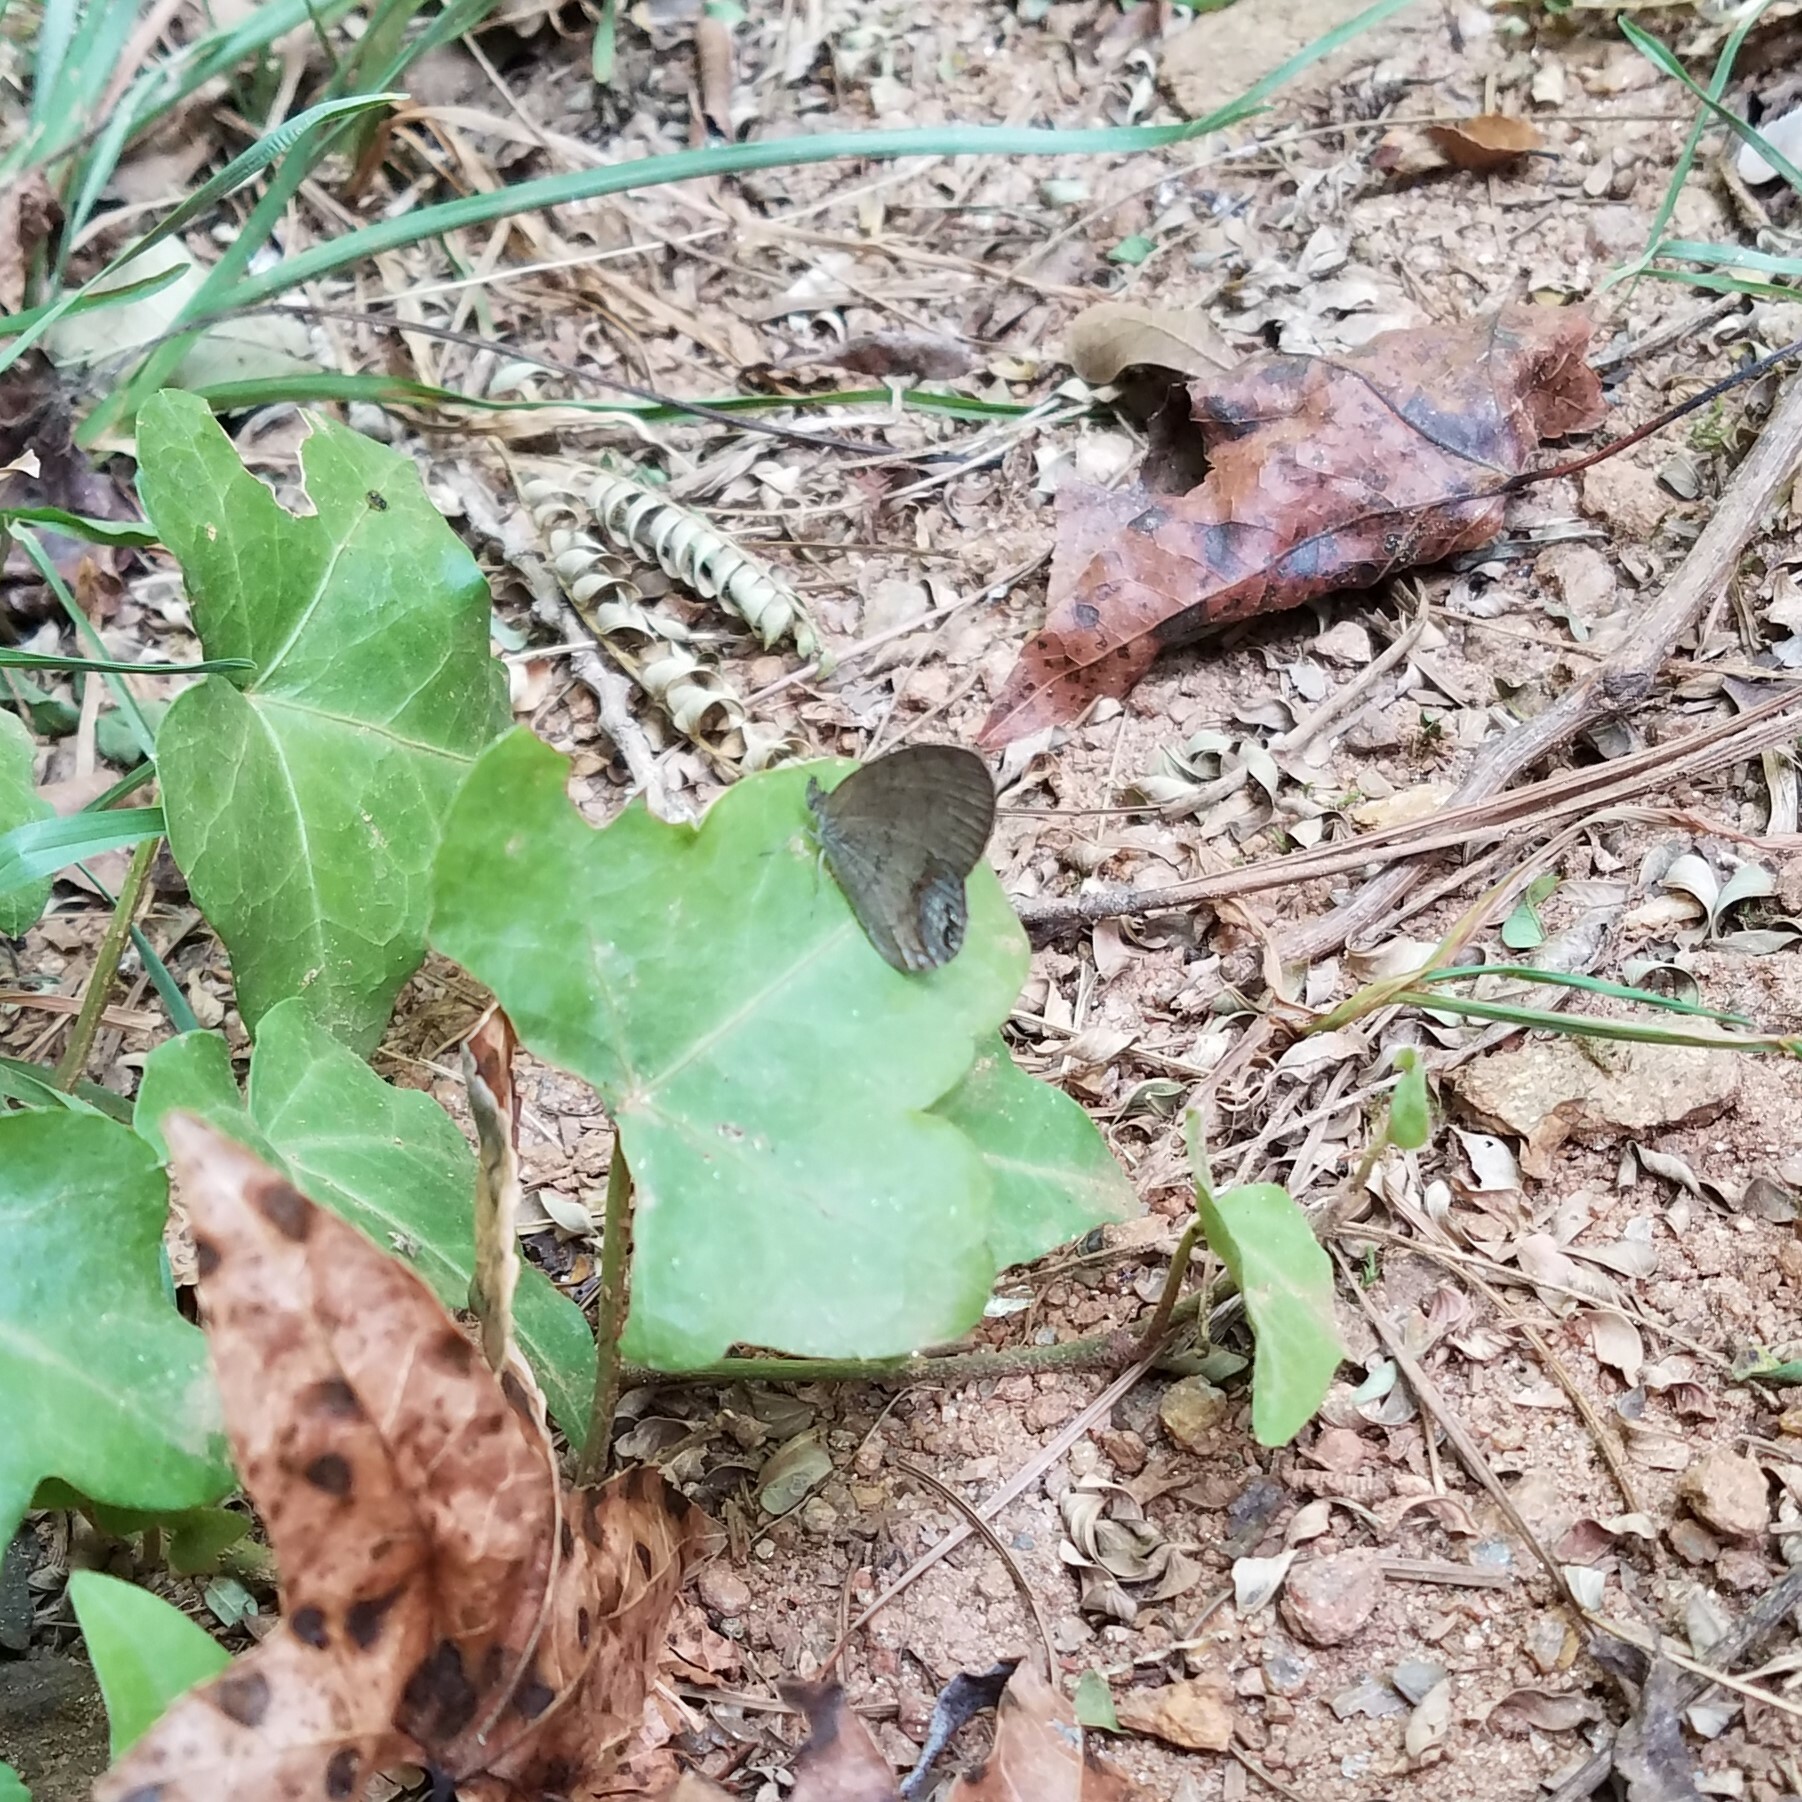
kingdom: Animalia
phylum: Arthropoda
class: Insecta
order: Lepidoptera
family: Nymphalidae
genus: Euptychia
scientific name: Euptychia cornelius
